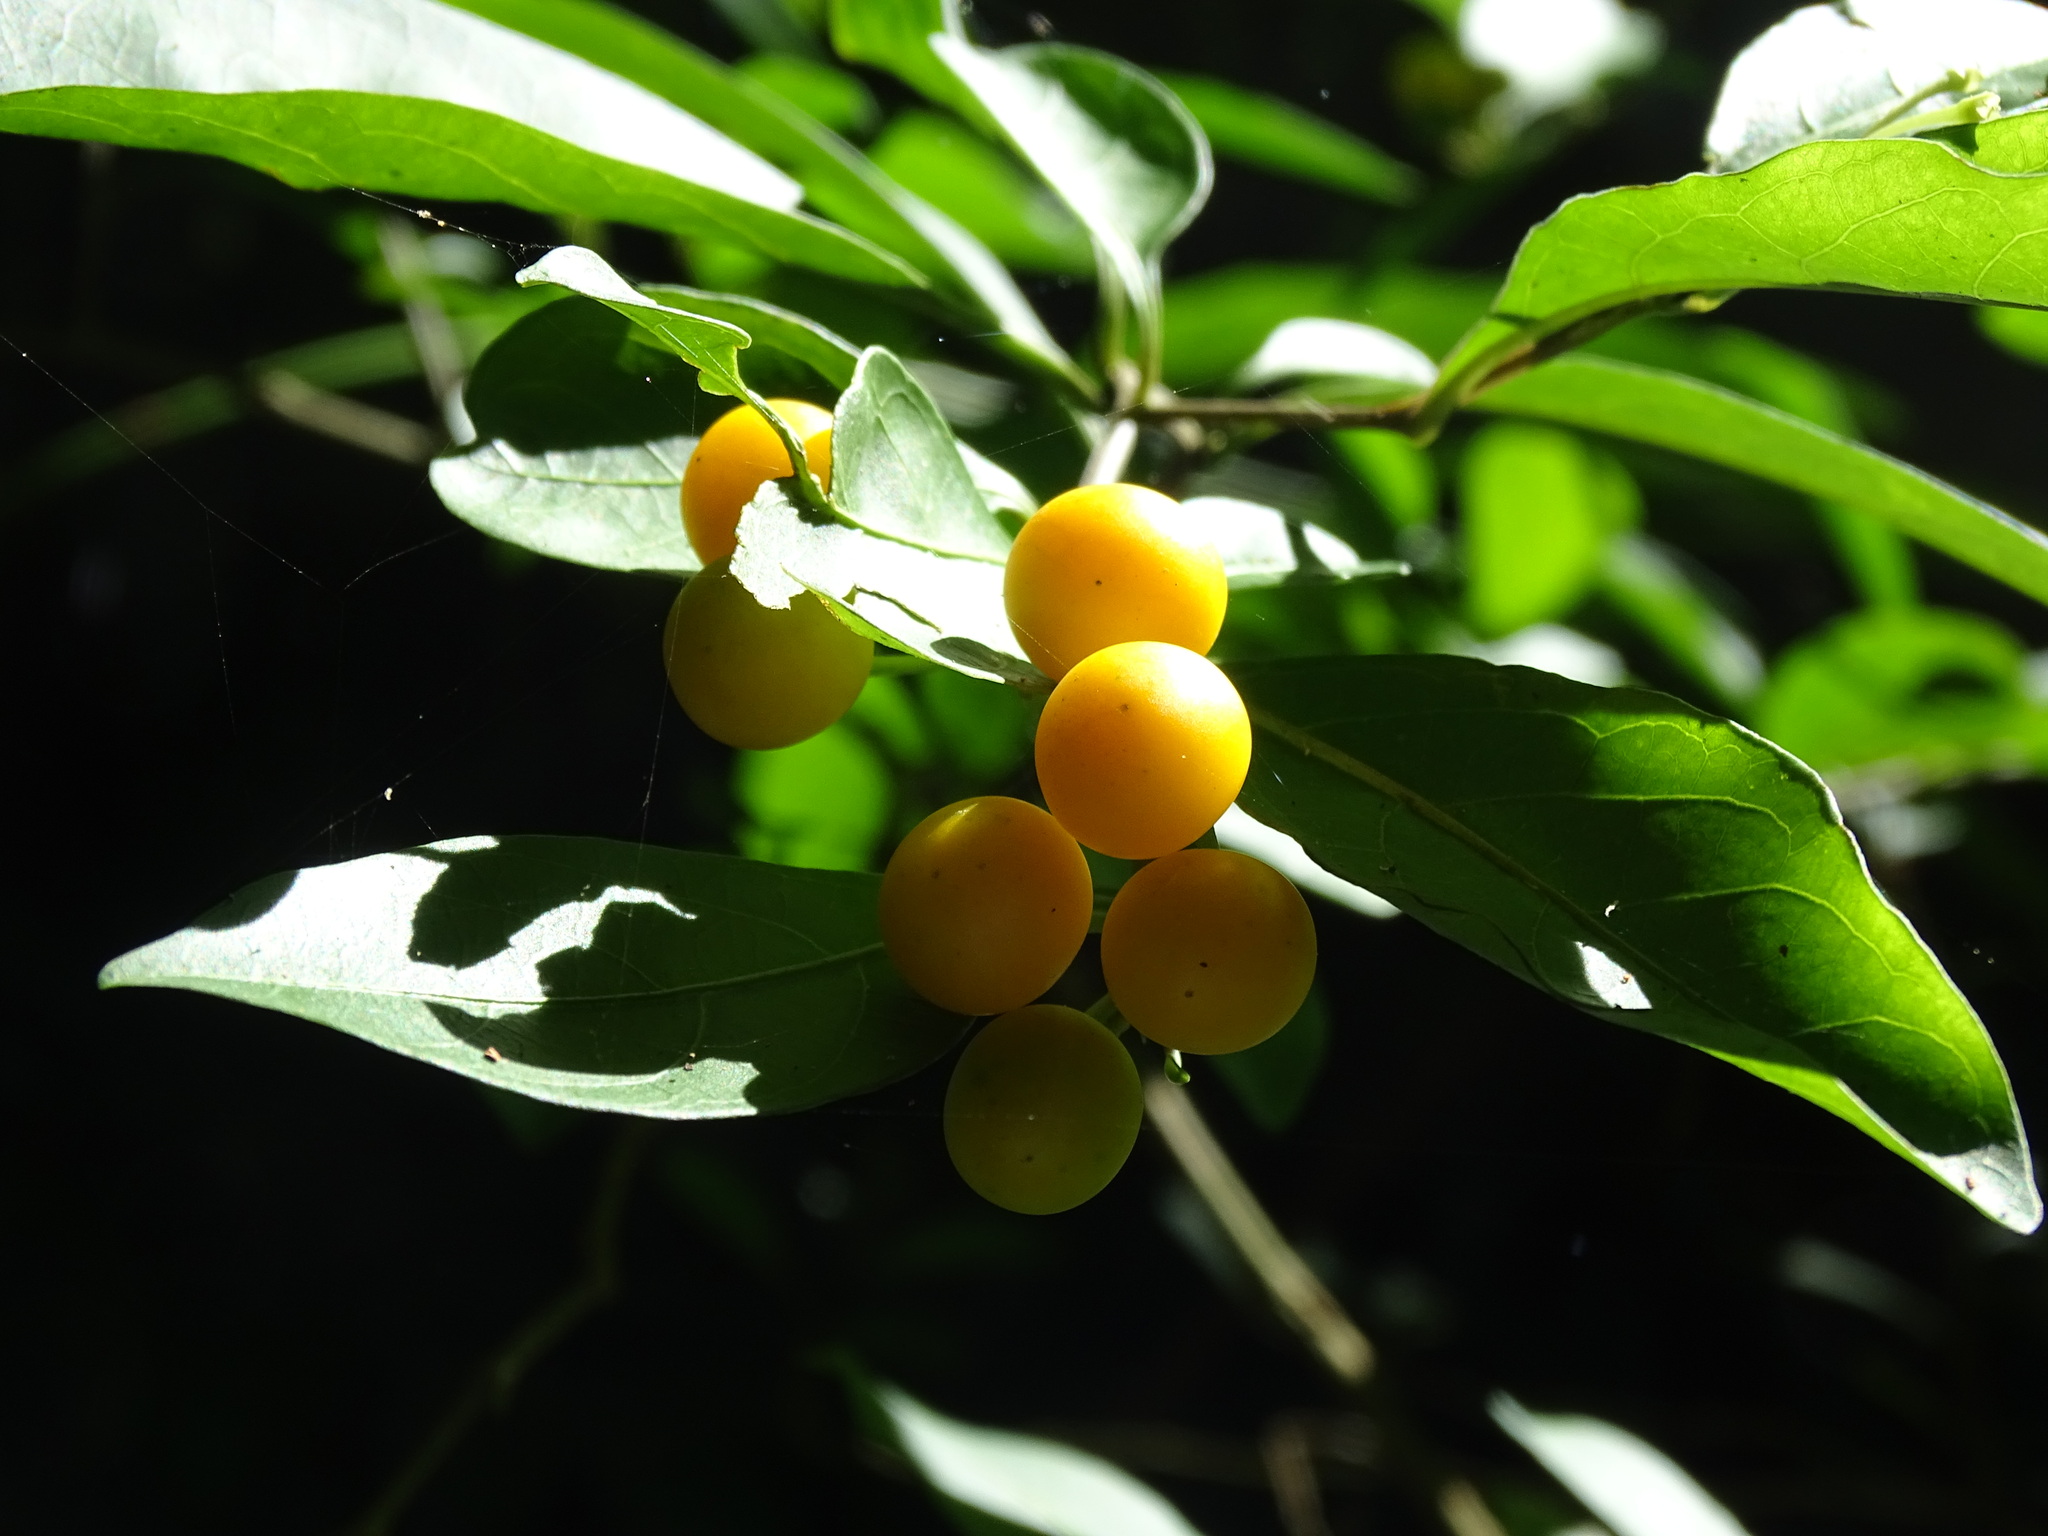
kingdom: Plantae
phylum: Tracheophyta
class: Magnoliopsida
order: Solanales
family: Solanaceae
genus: Solanum
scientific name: Solanum diphyllum
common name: Twoleaf nightshade
